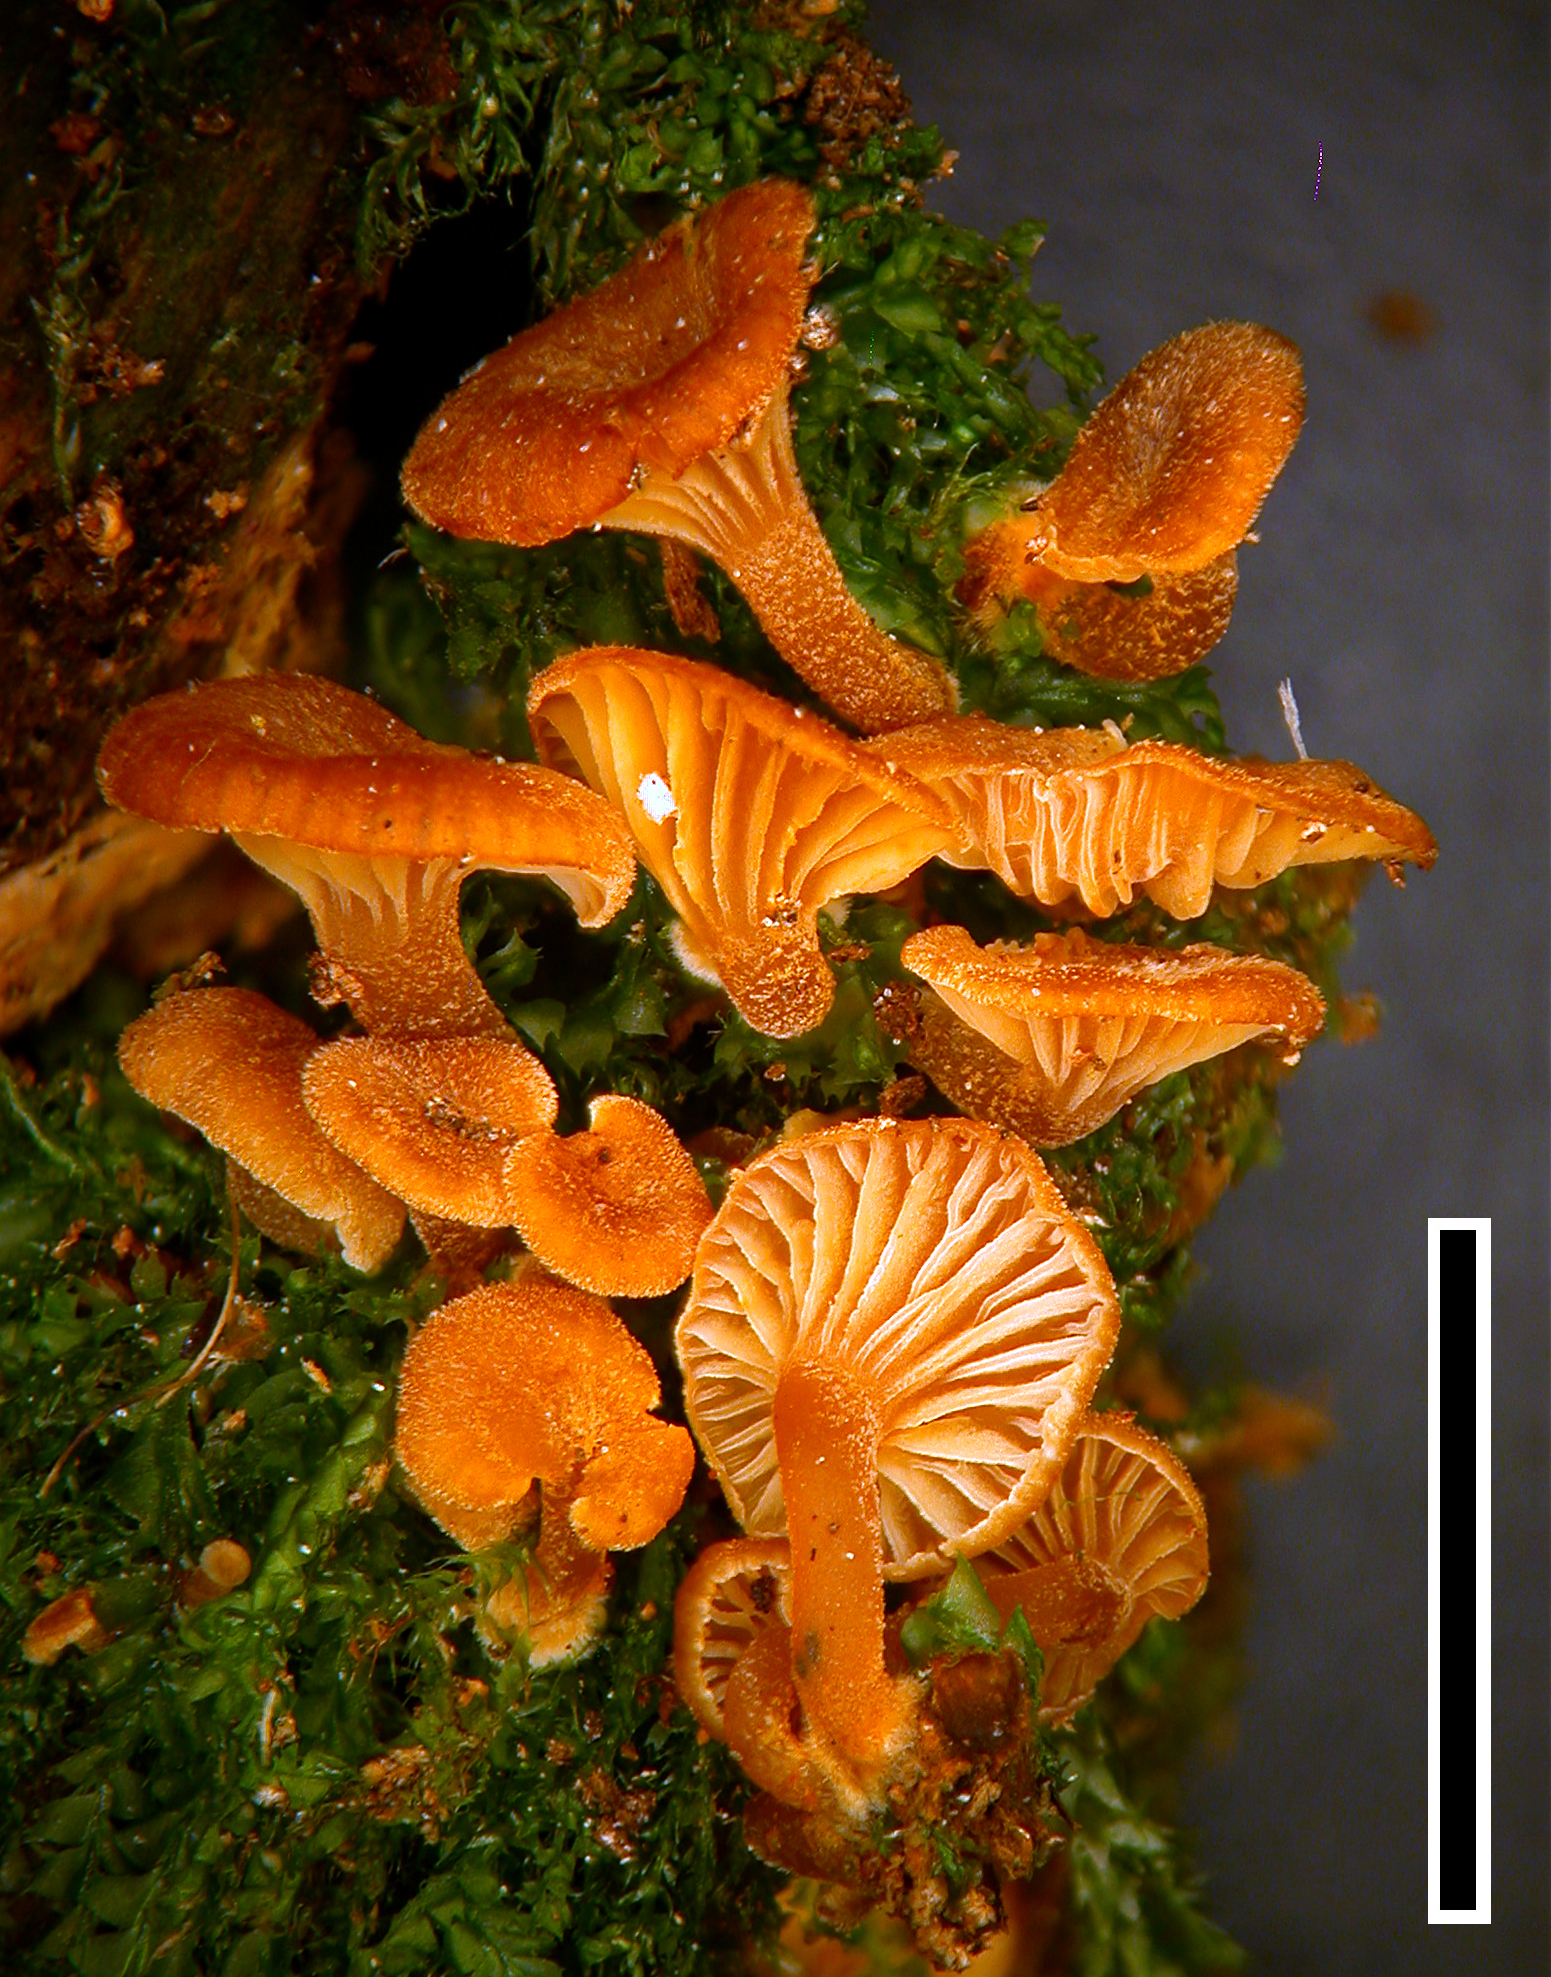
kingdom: Fungi
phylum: Basidiomycota
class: Agaricomycetes
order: Agaricales
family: Mycenaceae
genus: Xeromphalina
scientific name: Xeromphalina podocarpi
